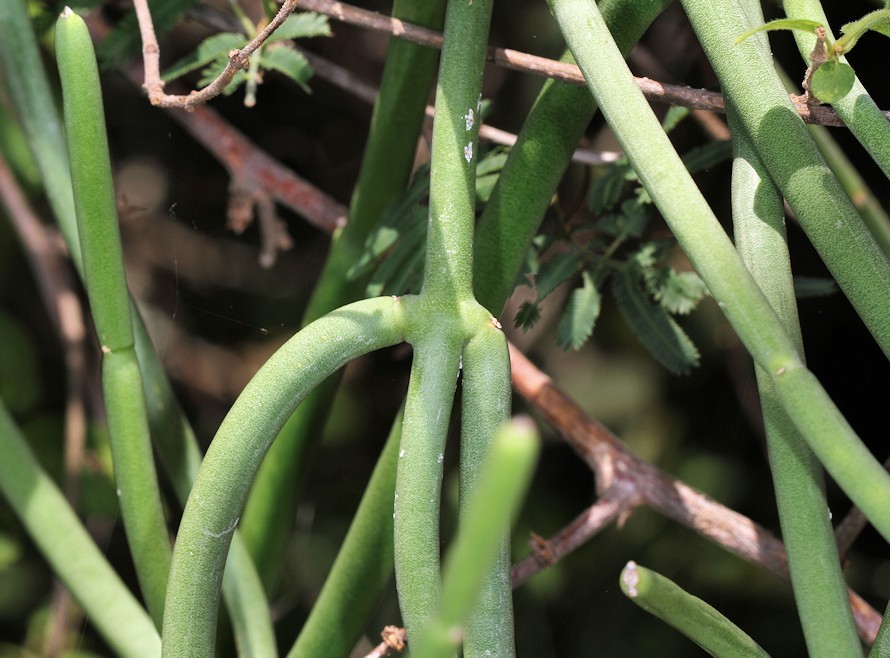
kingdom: Plantae
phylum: Tracheophyta
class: Magnoliopsida
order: Gentianales
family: Apocynaceae
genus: Cynanchum
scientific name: Cynanchum viminale
